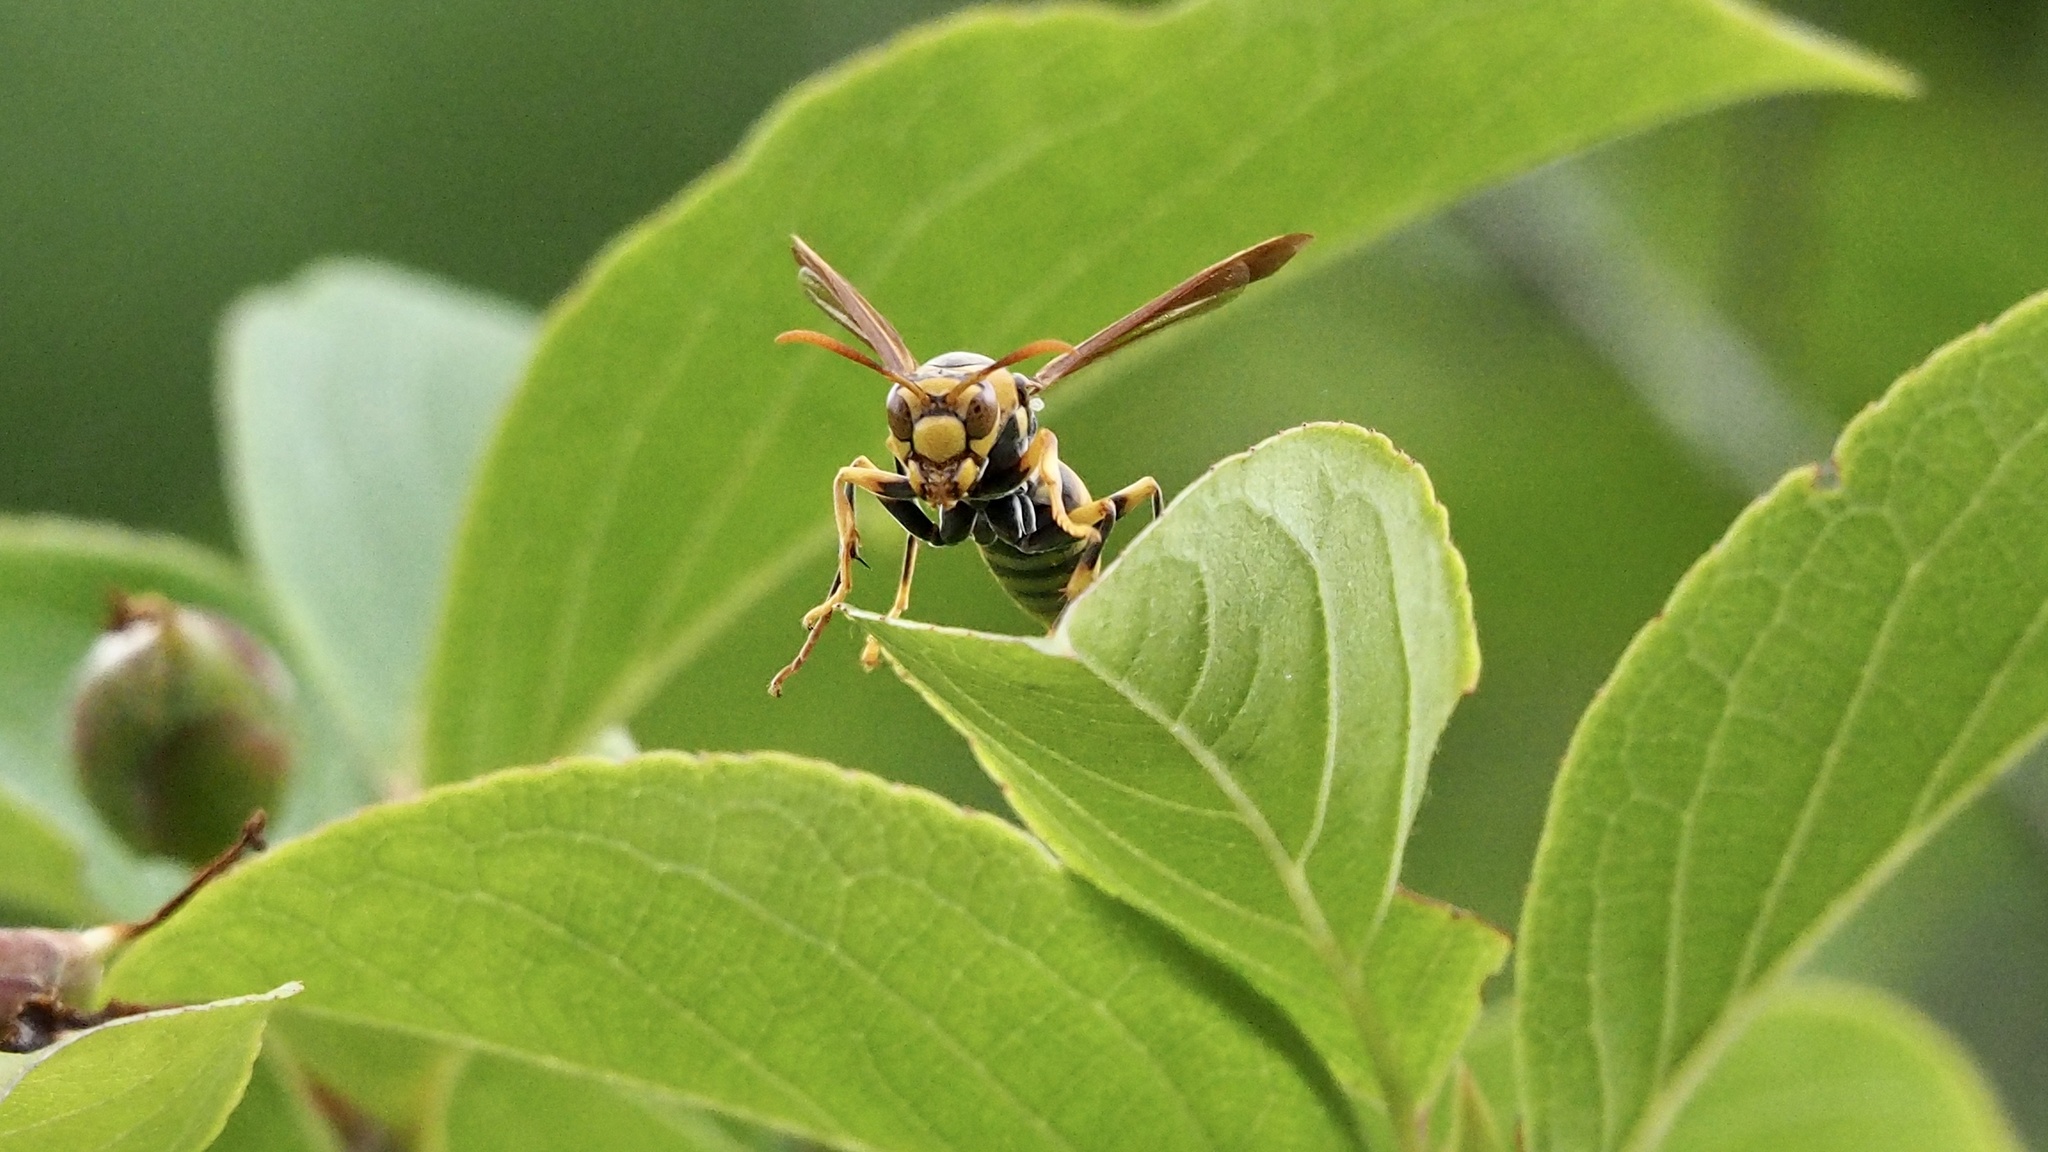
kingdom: Animalia
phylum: Arthropoda
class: Insecta
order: Hymenoptera
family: Eumenidae
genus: Polistes
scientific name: Polistes rothneyi
